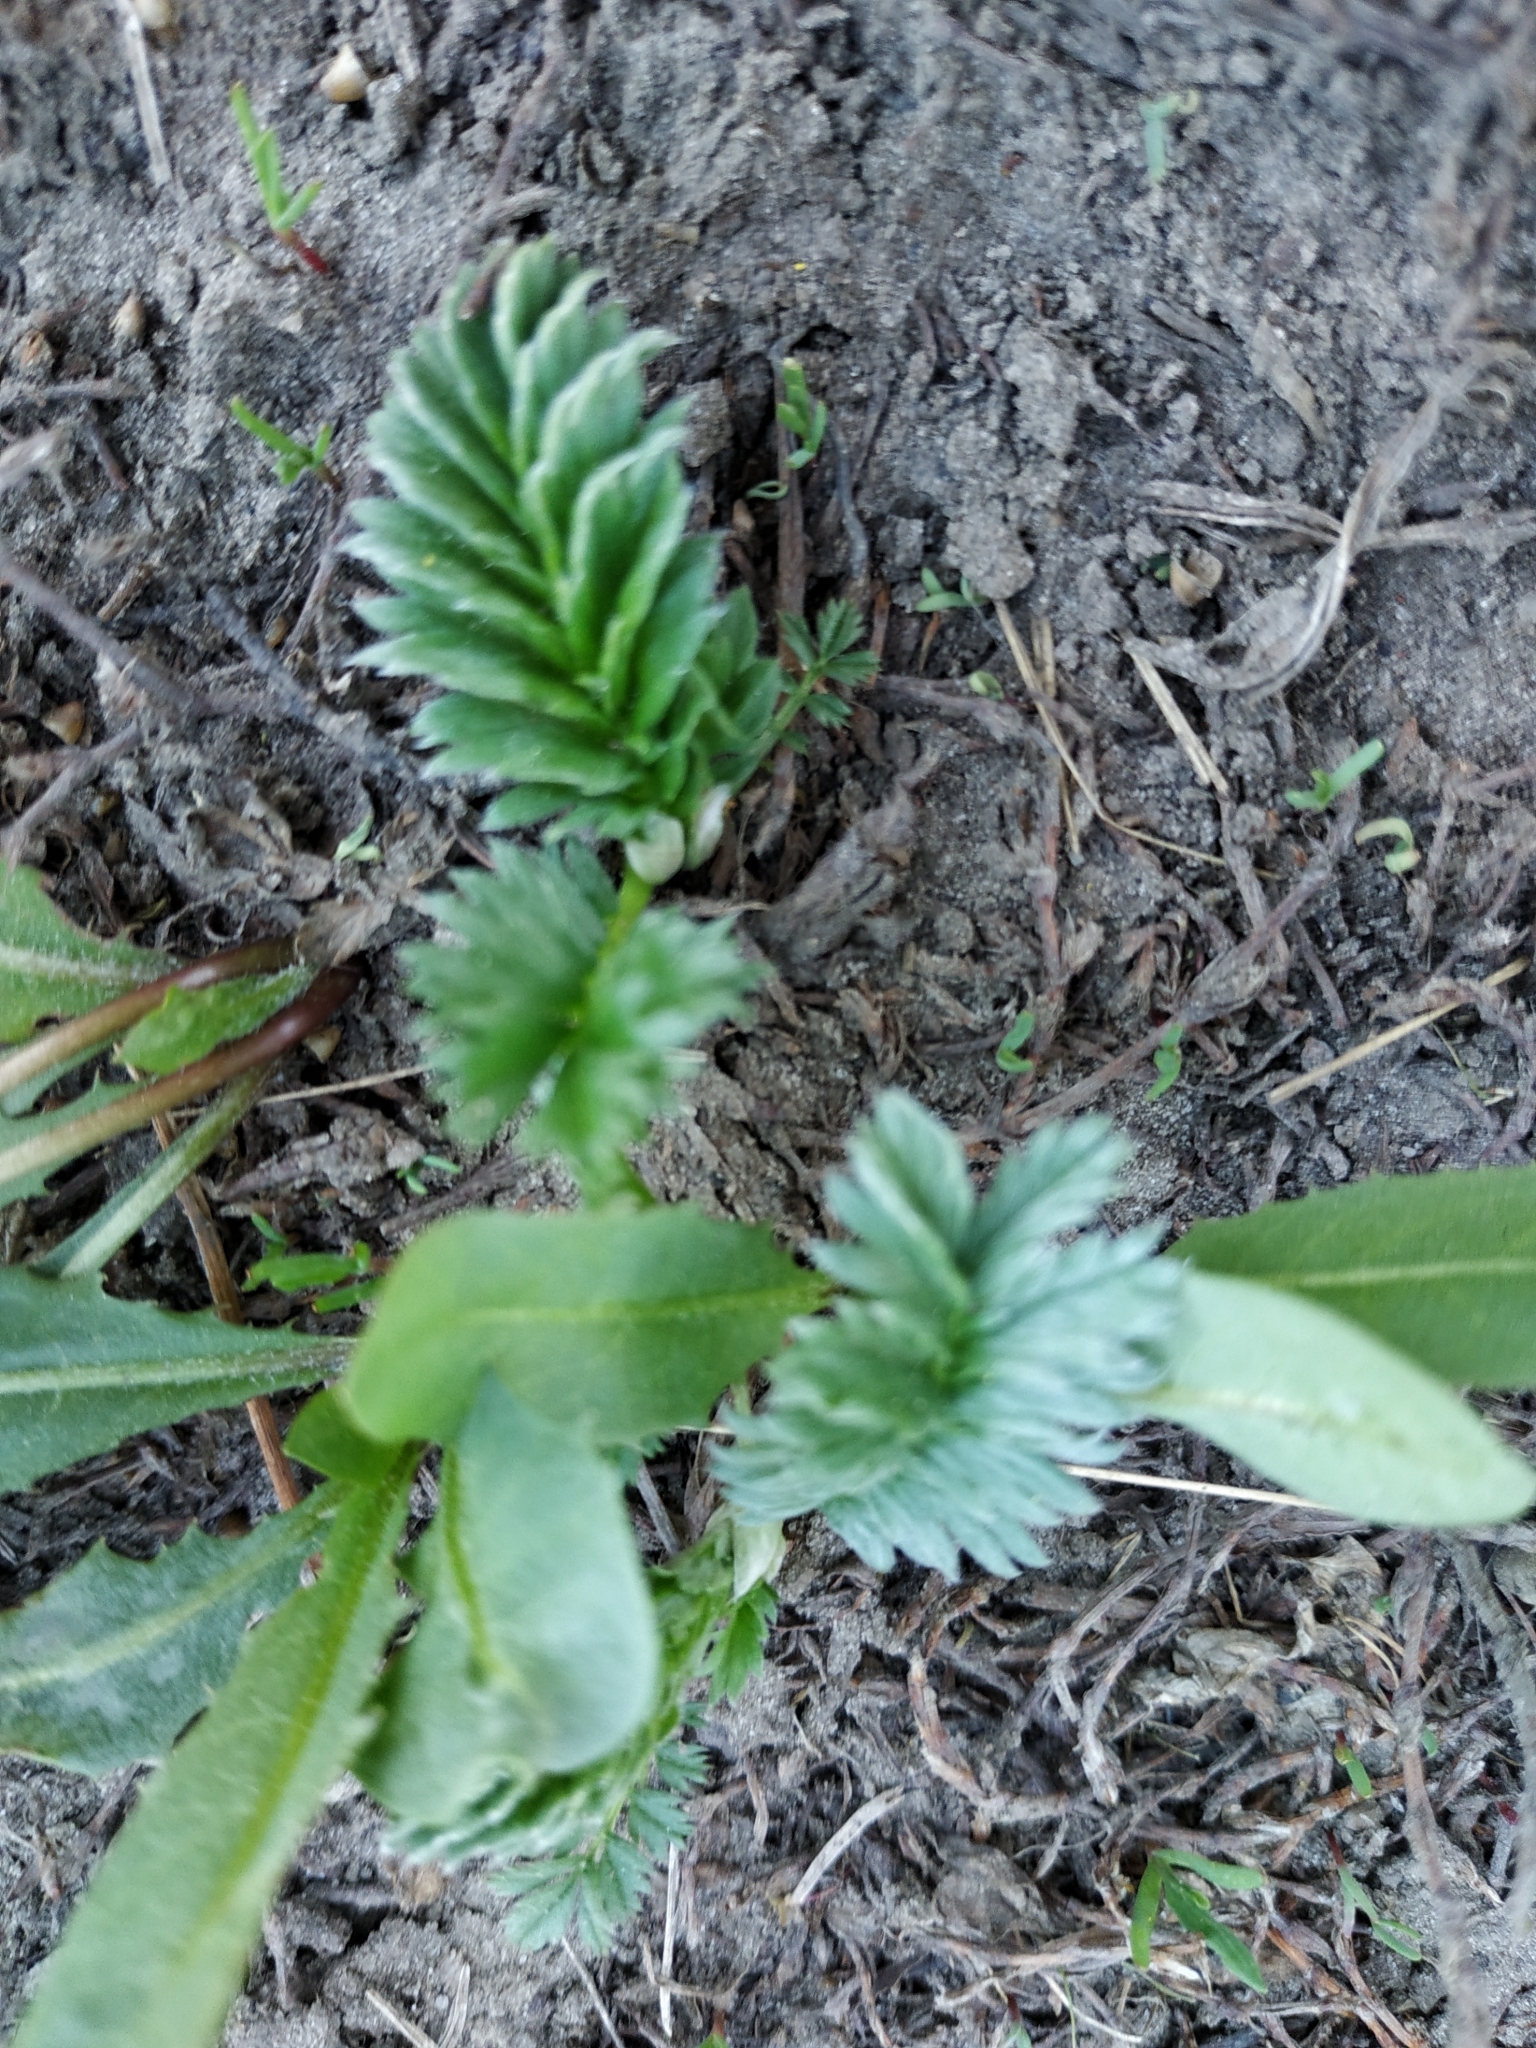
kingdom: Plantae
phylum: Tracheophyta
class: Magnoliopsida
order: Rosales
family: Rosaceae
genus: Argentina
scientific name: Argentina anserina
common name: Common silverweed
